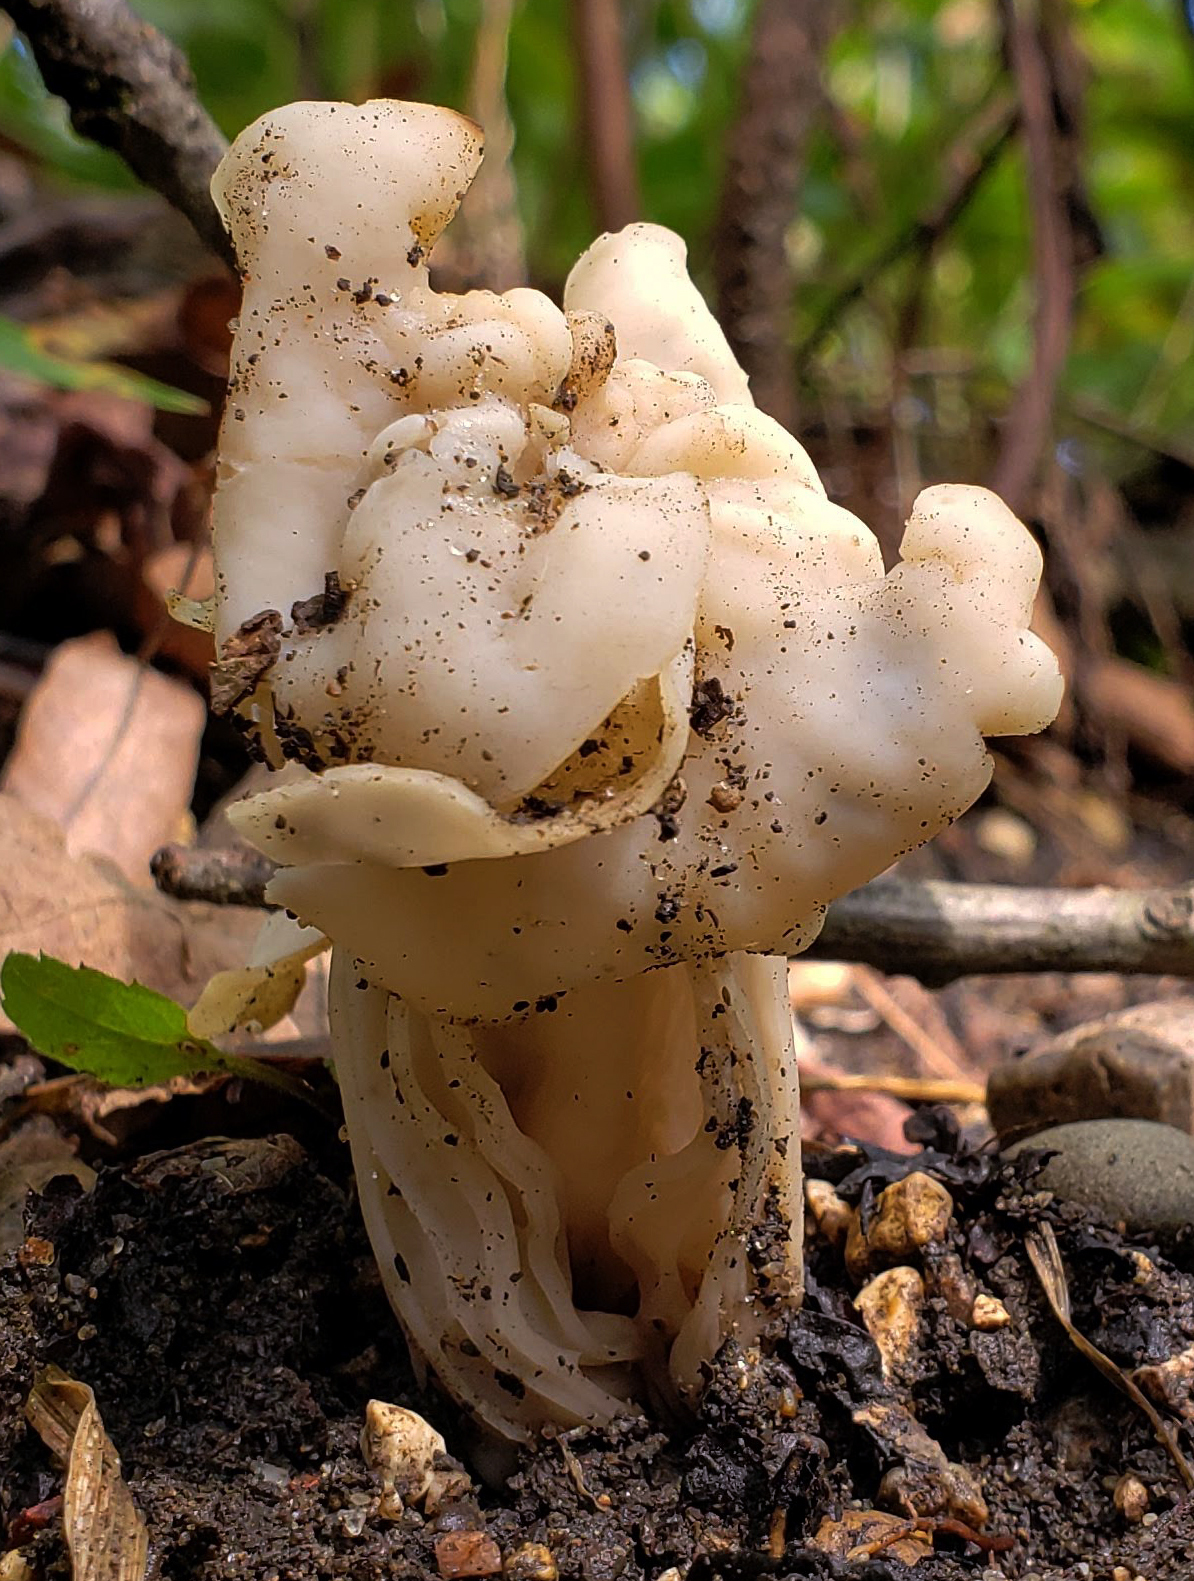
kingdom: Fungi
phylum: Ascomycota
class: Pezizomycetes
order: Pezizales
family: Helvellaceae
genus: Helvella
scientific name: Helvella crispa
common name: White saddle
